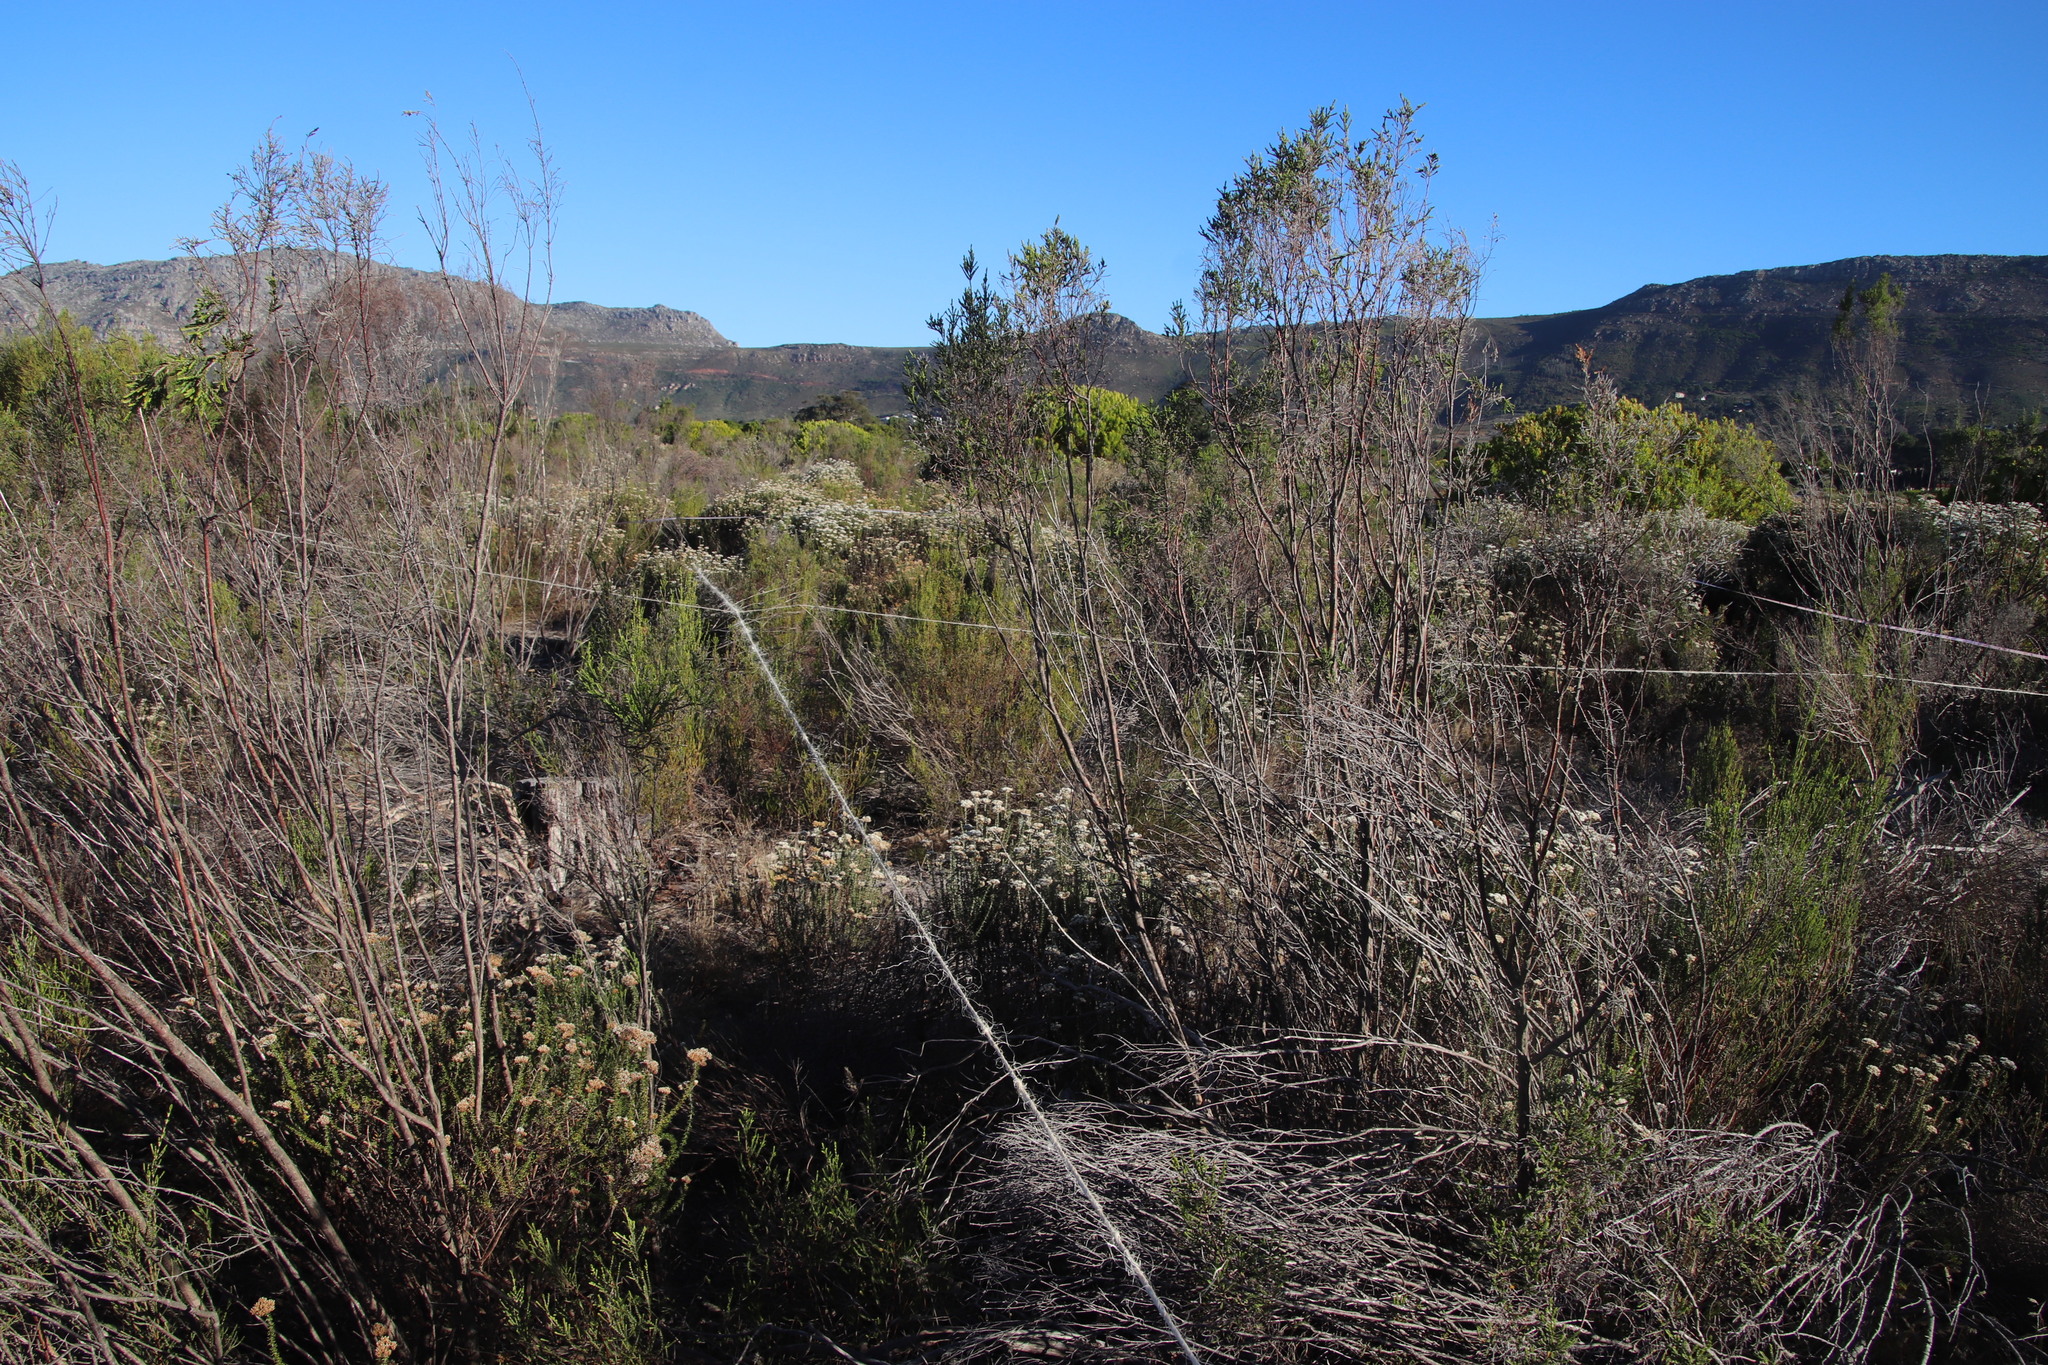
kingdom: Plantae
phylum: Tracheophyta
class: Magnoliopsida
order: Malvales
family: Thymelaeaceae
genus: Passerina
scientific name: Passerina corymbosa
